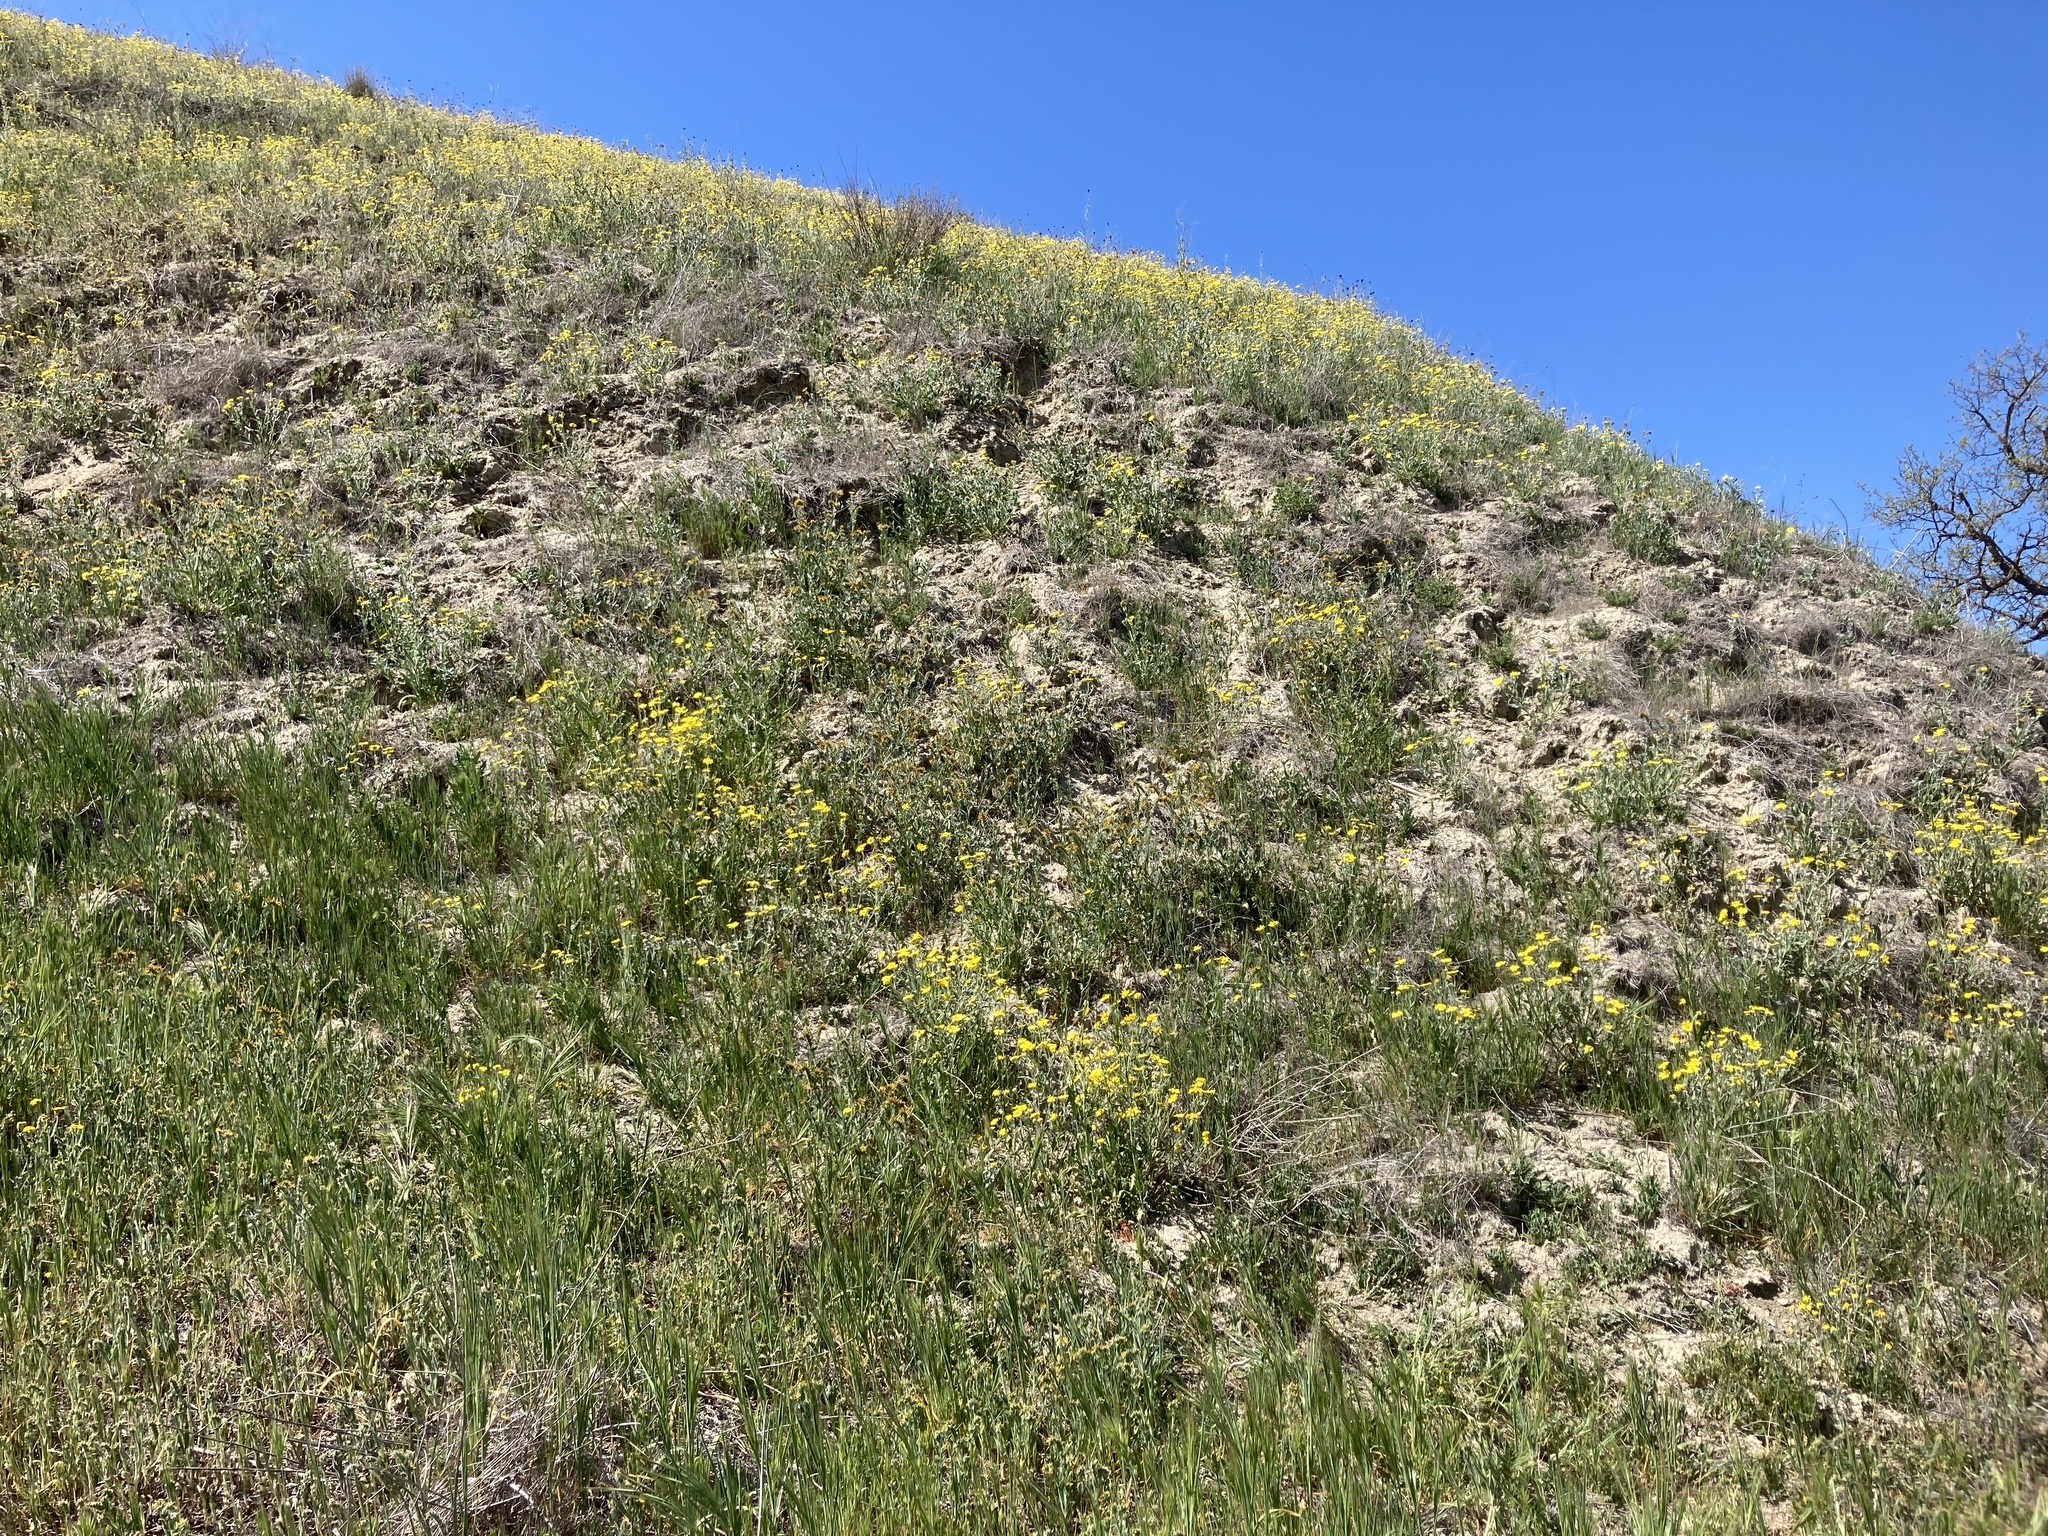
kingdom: Plantae
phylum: Tracheophyta
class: Magnoliopsida
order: Asterales
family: Asteraceae
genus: Monolopia
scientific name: Monolopia lanceolata
